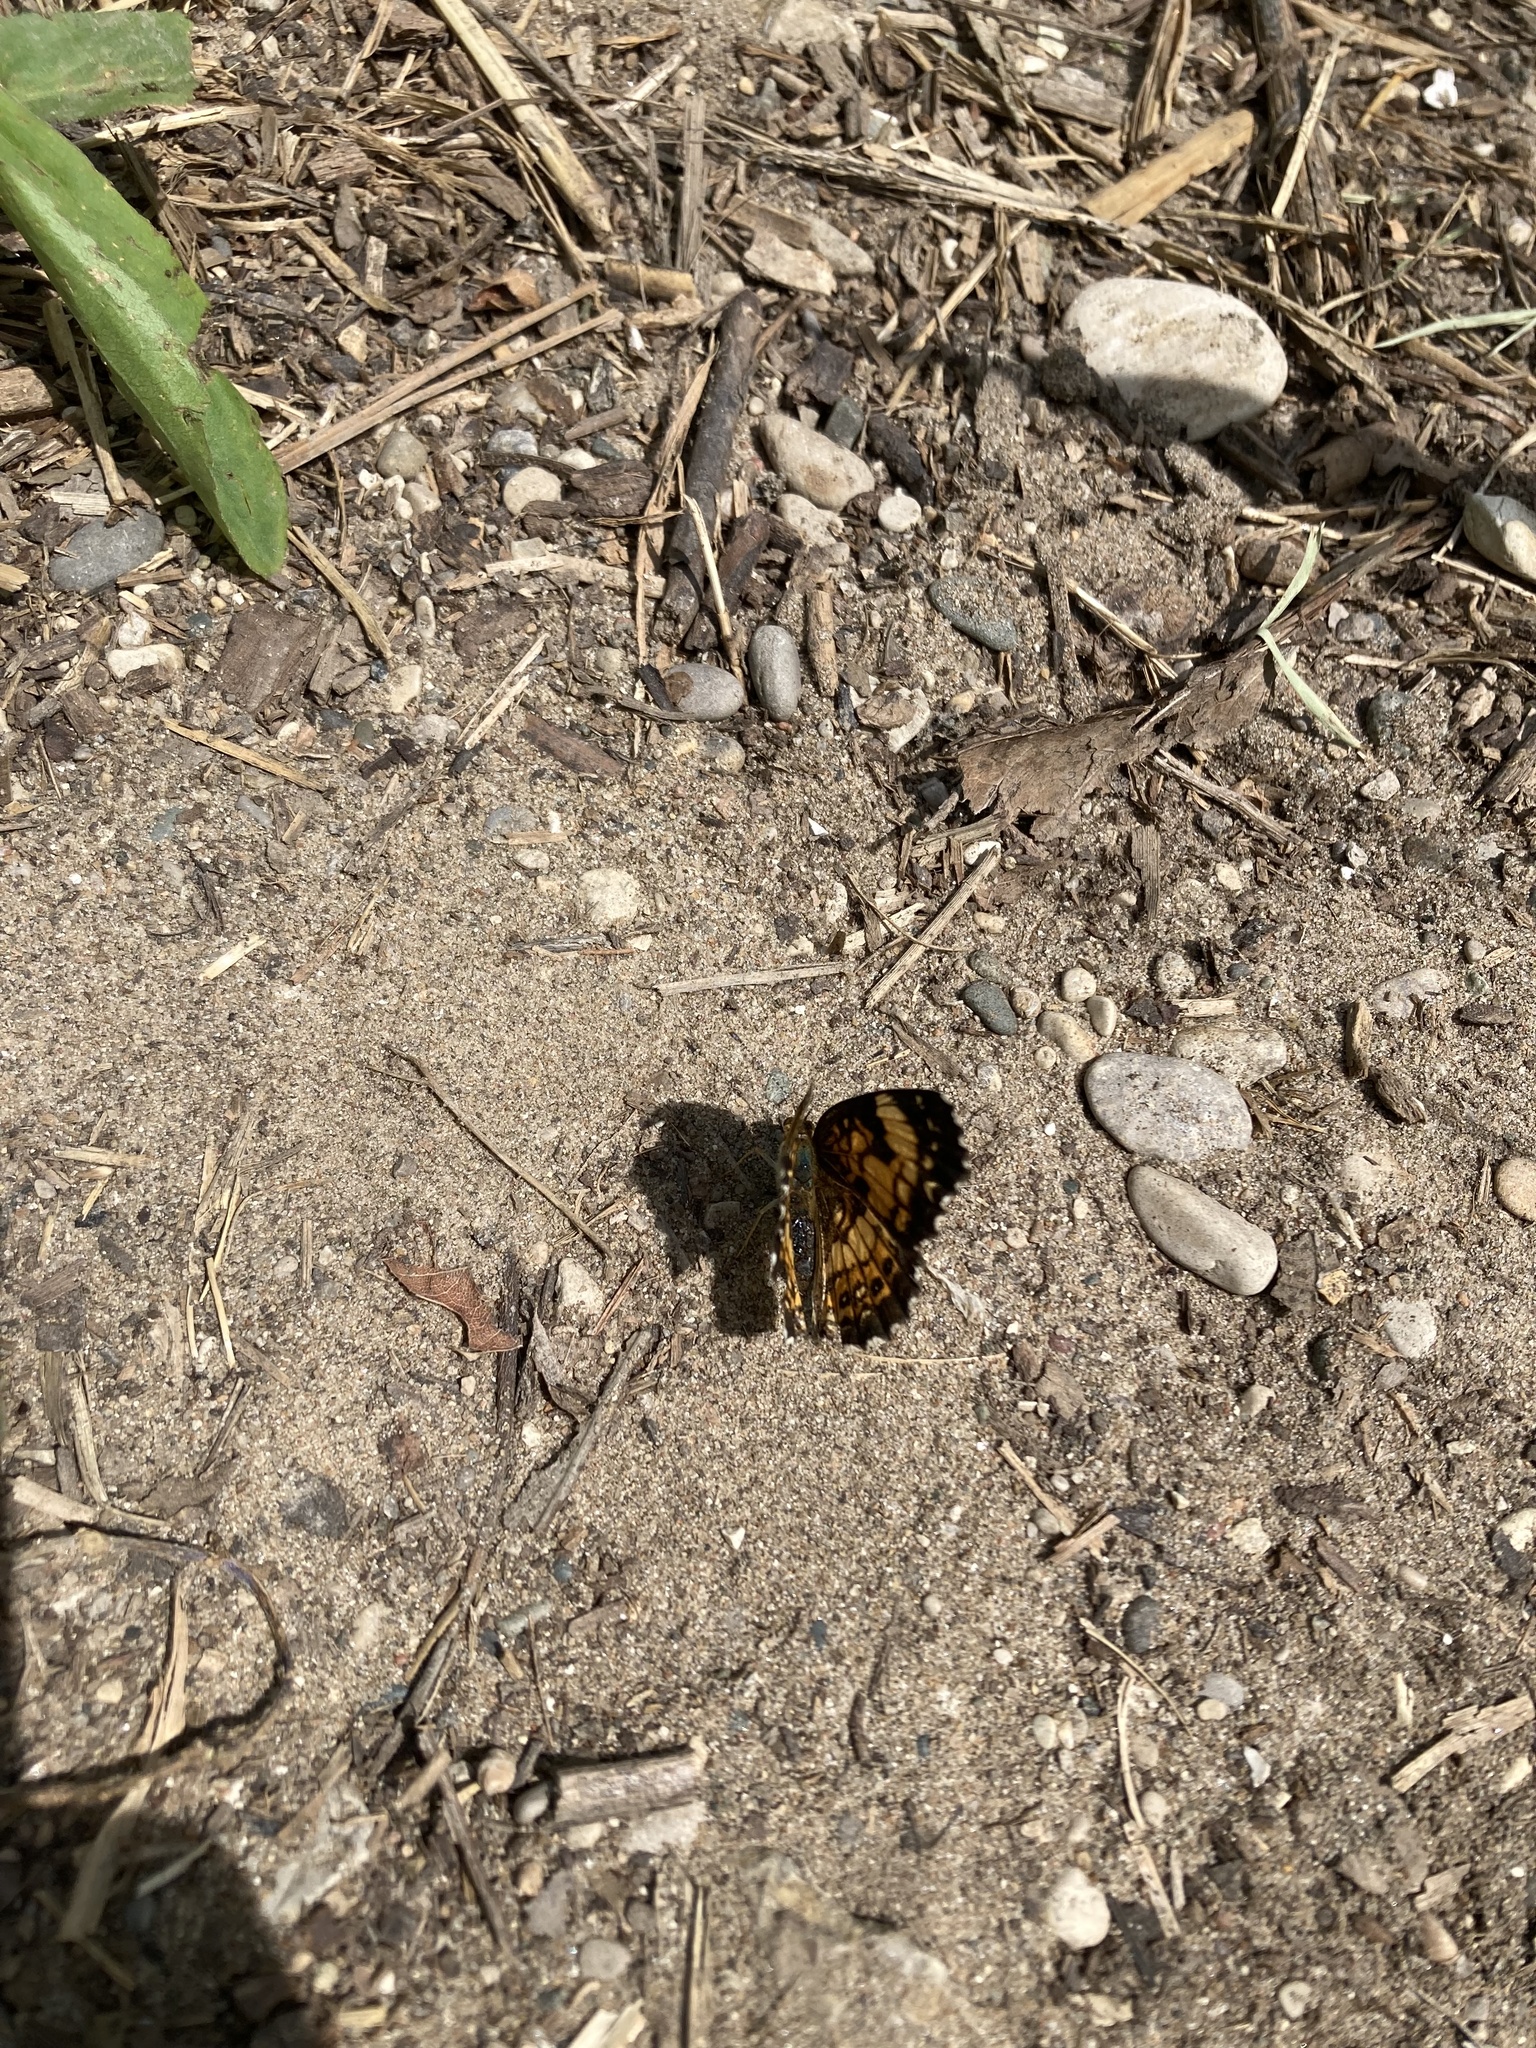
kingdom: Animalia
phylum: Arthropoda
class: Insecta
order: Lepidoptera
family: Nymphalidae
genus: Chlosyne
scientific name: Chlosyne nycteis
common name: Silvery checkerspot
